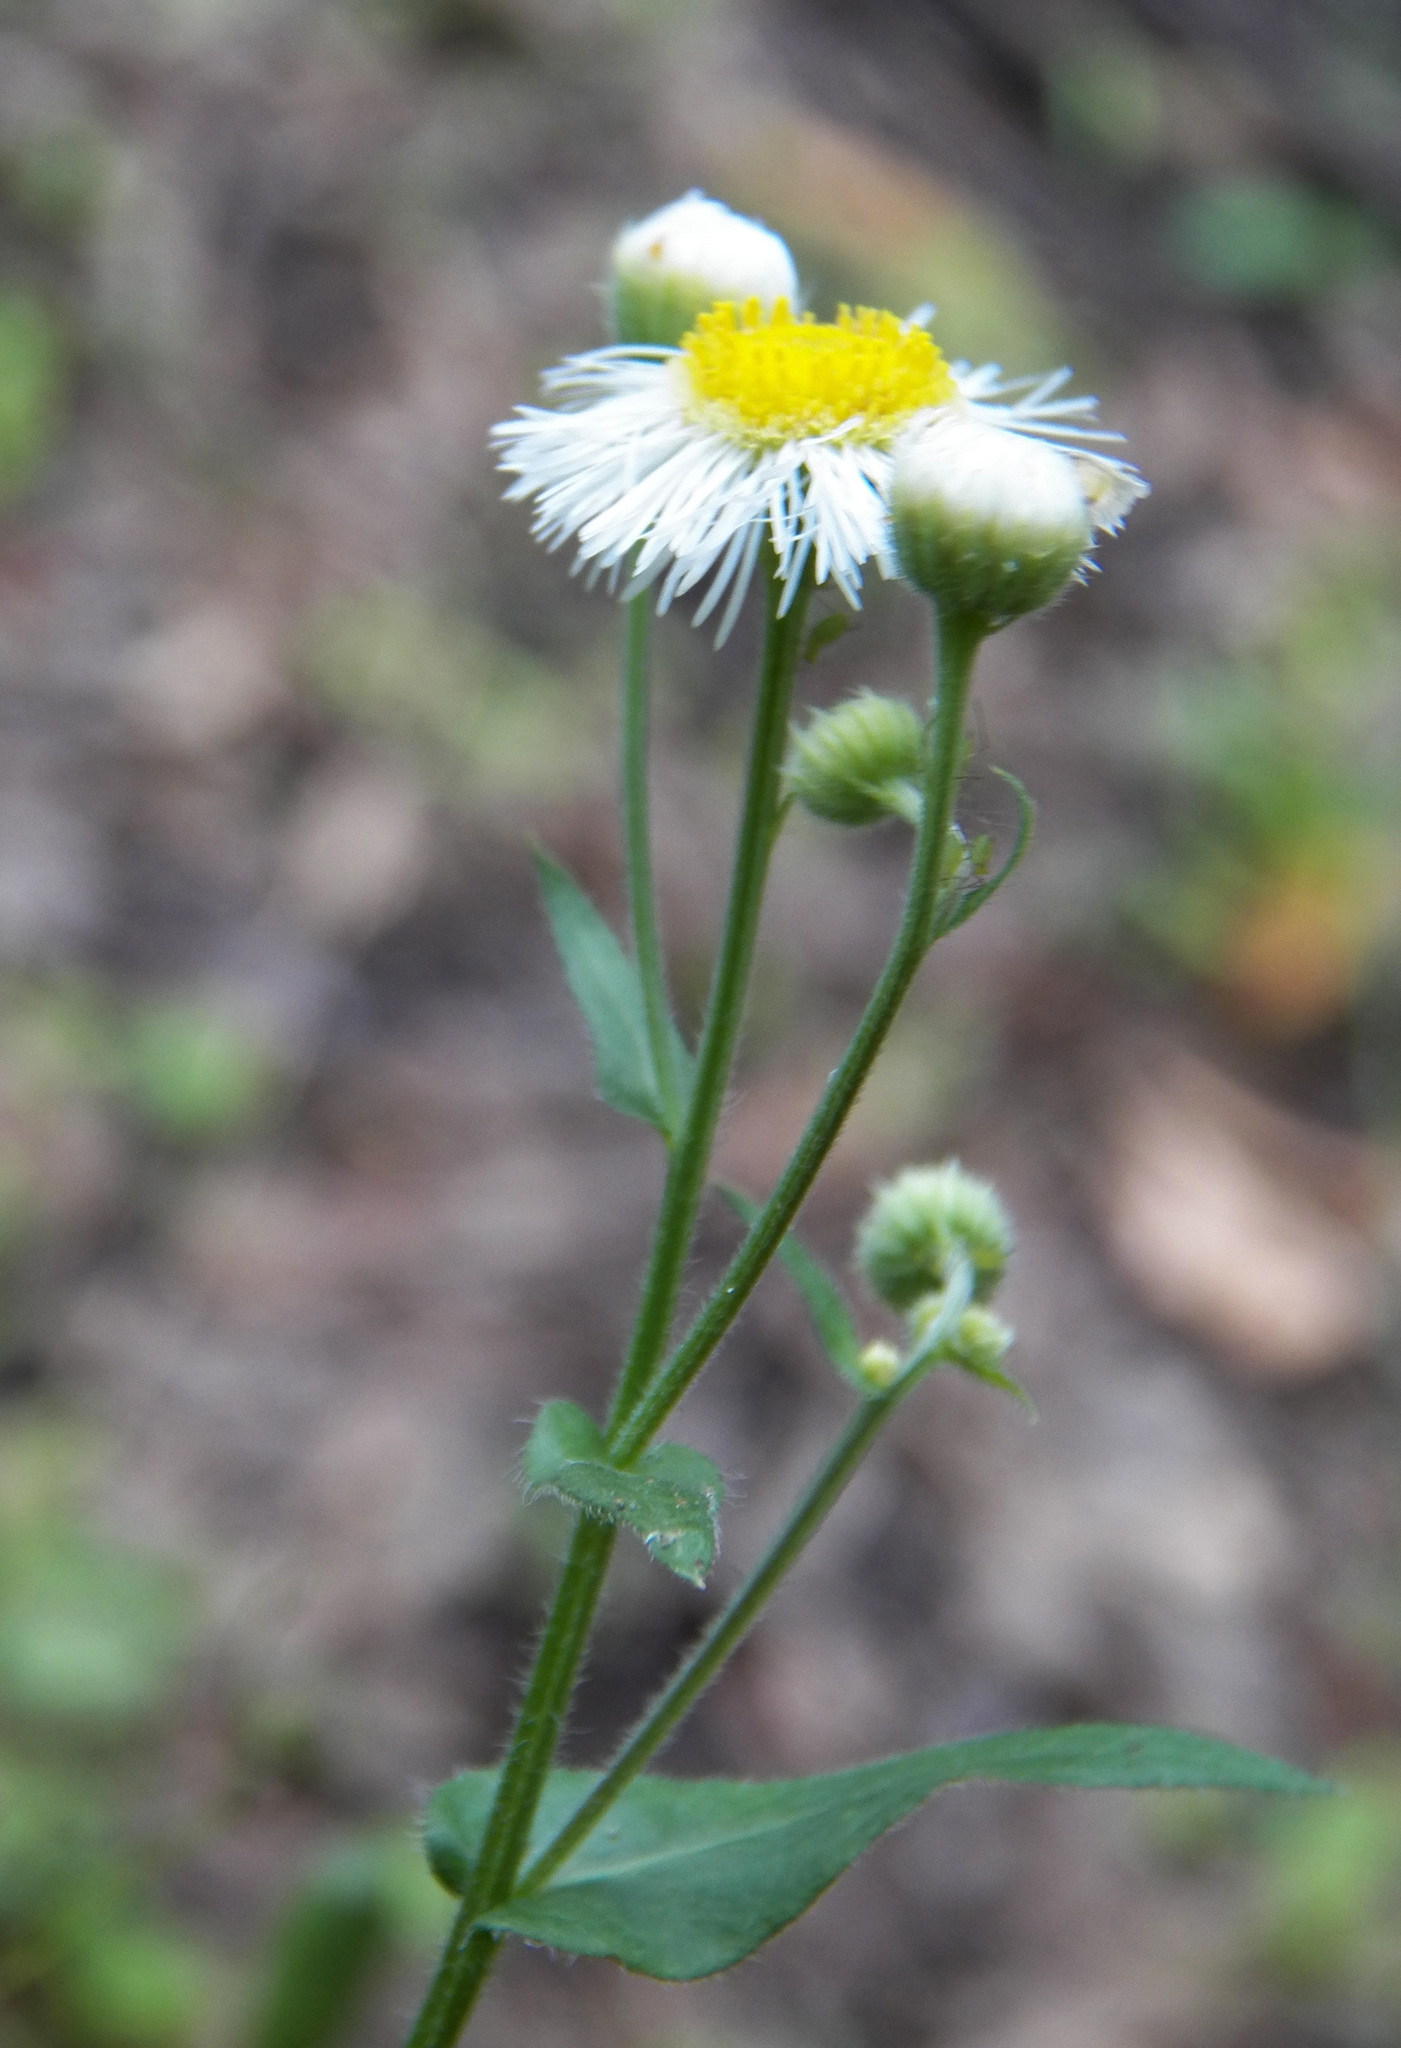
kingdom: Plantae
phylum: Tracheophyta
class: Magnoliopsida
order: Asterales
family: Asteraceae
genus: Erigeron
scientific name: Erigeron philadelphicus
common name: Robin's-plantain
